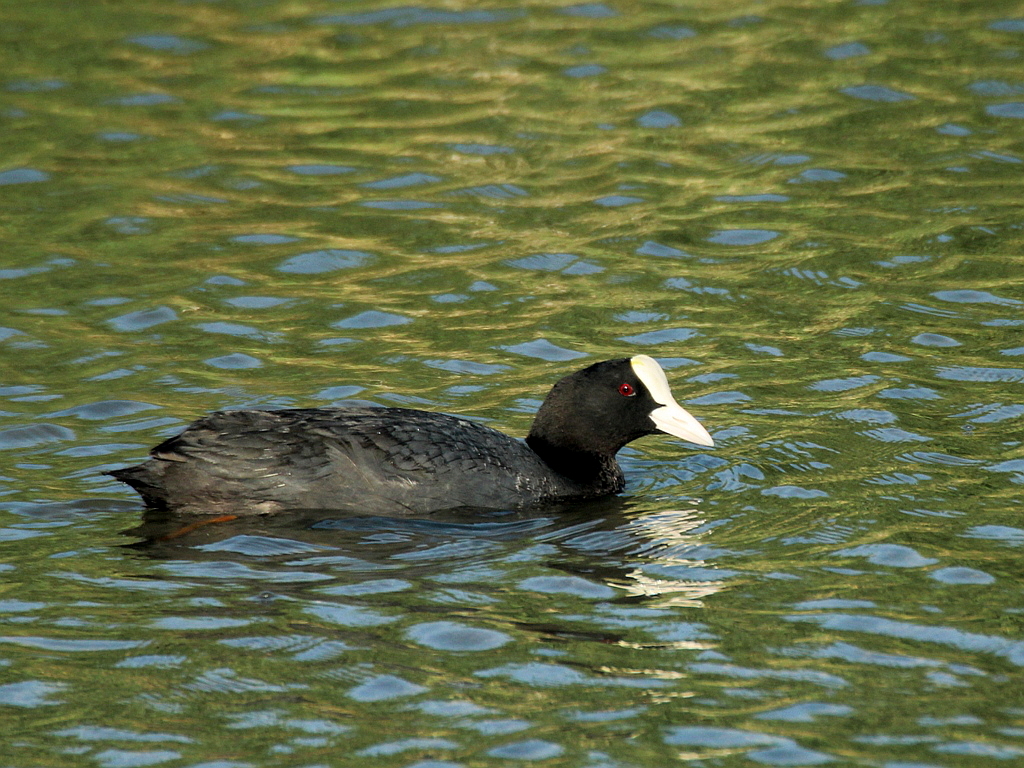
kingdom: Animalia
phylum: Chordata
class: Aves
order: Gruiformes
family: Rallidae
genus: Fulica
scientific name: Fulica atra
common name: Eurasian coot
